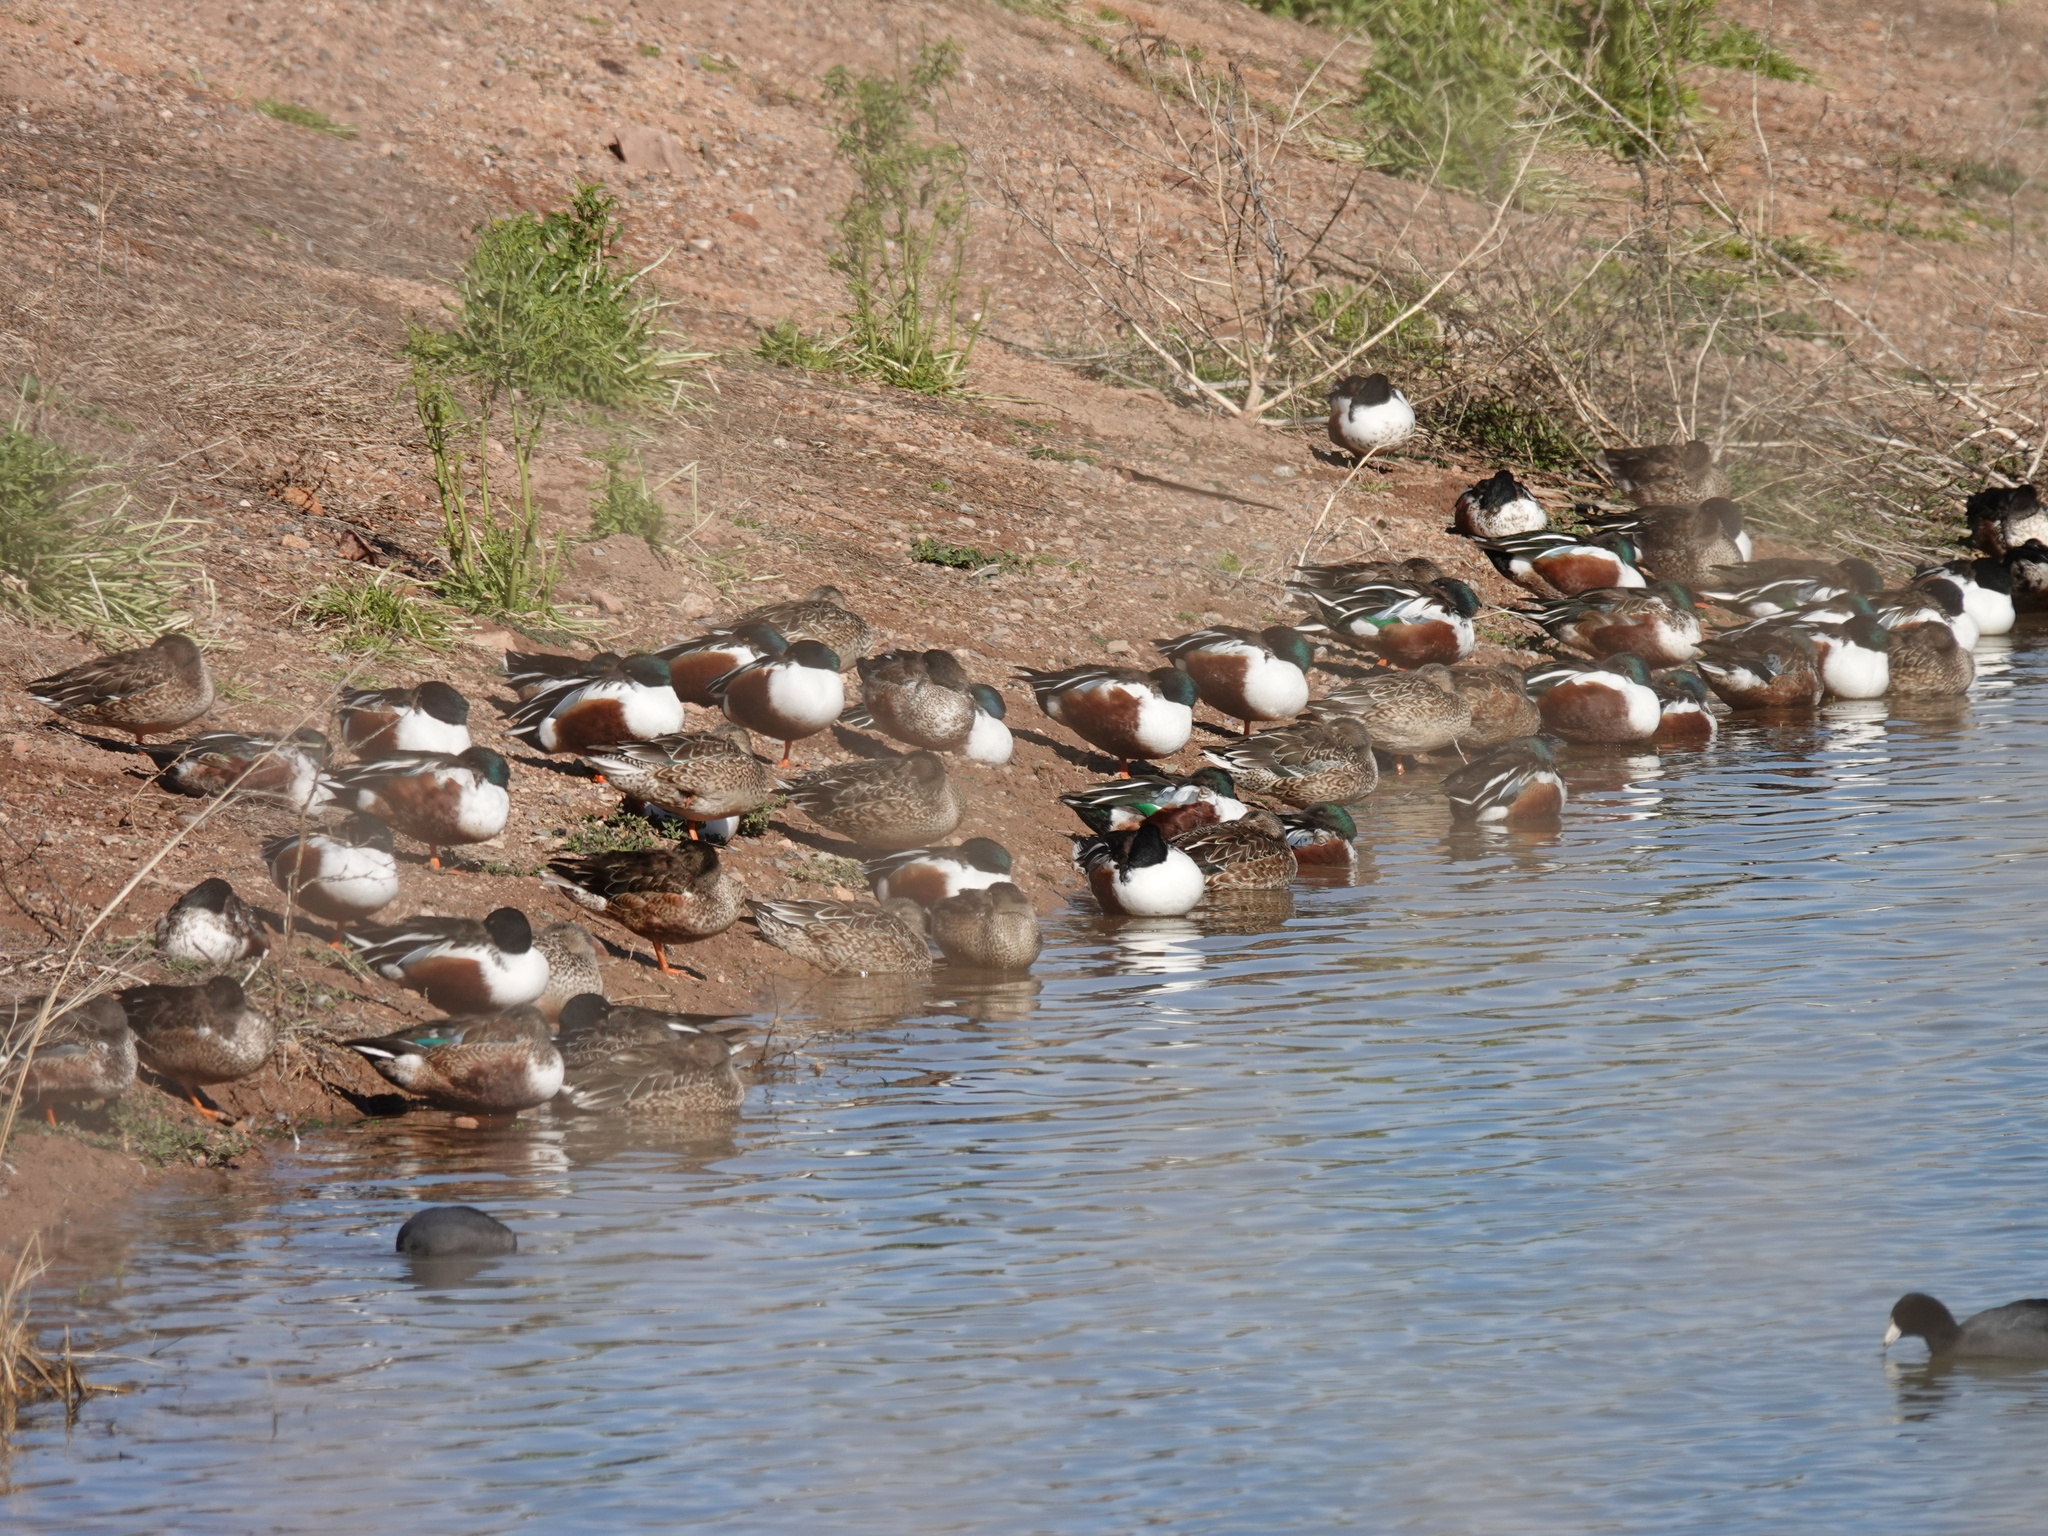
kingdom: Animalia
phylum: Chordata
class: Aves
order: Anseriformes
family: Anatidae
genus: Spatula
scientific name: Spatula clypeata
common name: Northern shoveler
